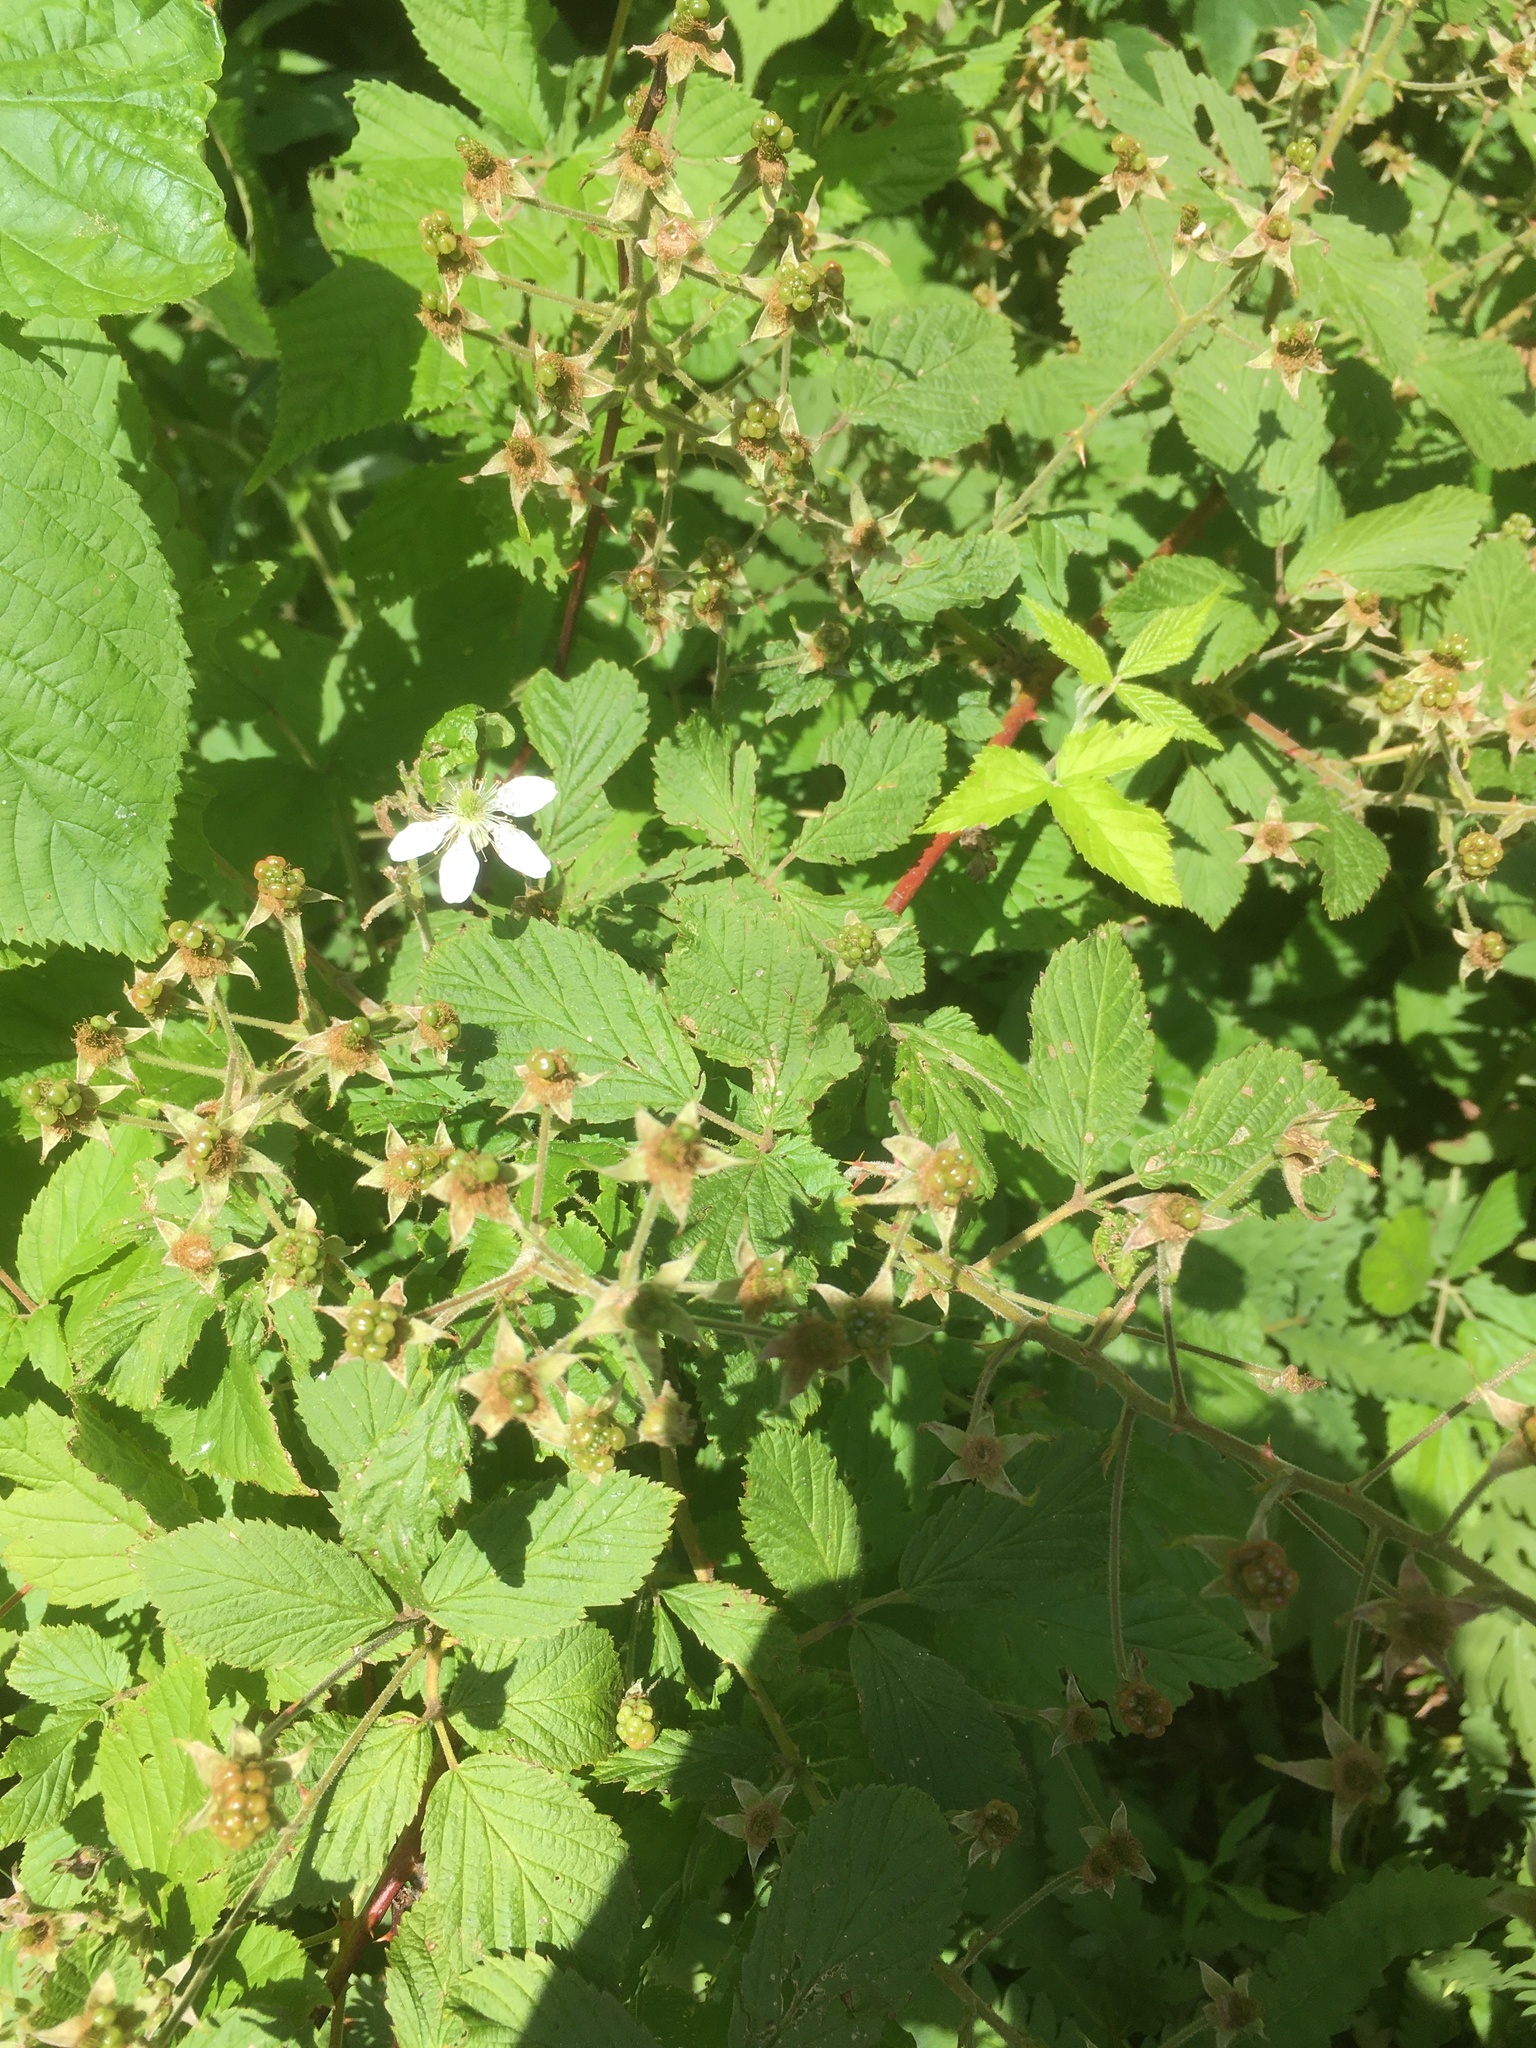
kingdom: Plantae
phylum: Tracheophyta
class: Magnoliopsida
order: Rosales
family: Rosaceae
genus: Rubus
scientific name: Rubus allegheniensis
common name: Allegheny blackberry
